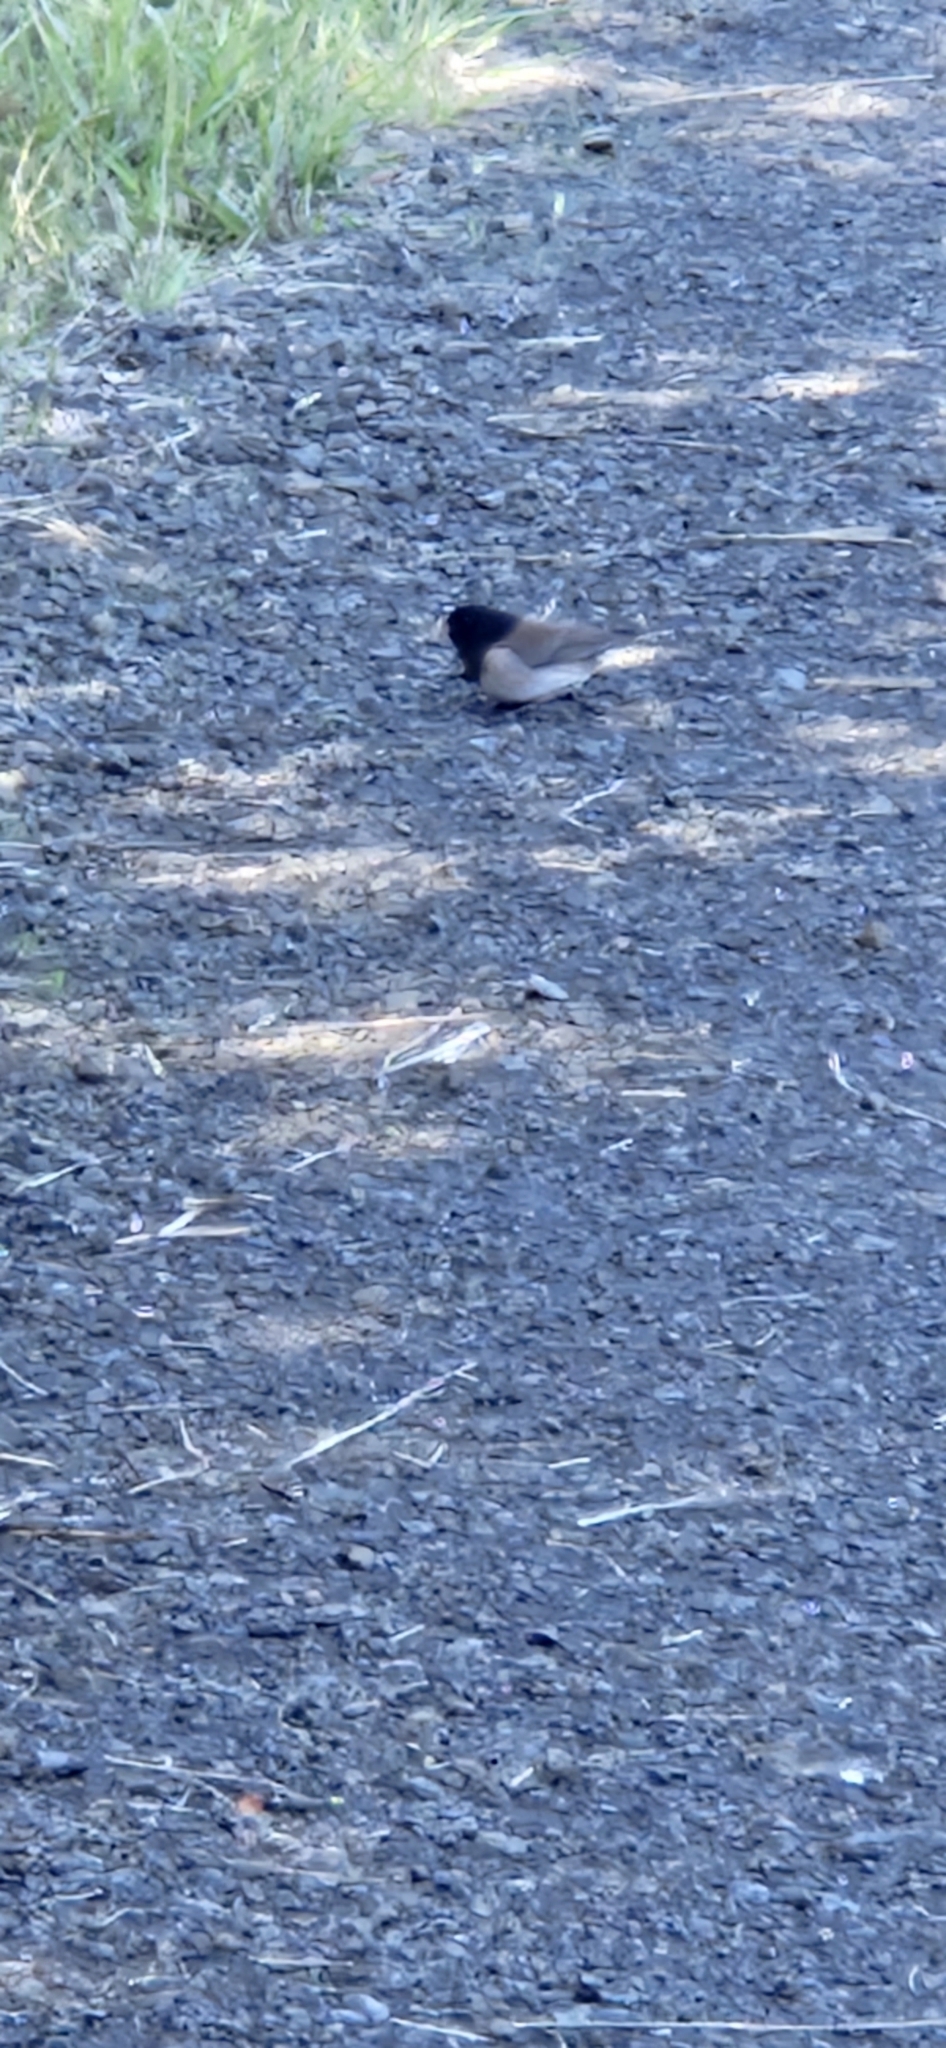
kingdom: Animalia
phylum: Chordata
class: Aves
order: Passeriformes
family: Passerellidae
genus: Junco
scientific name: Junco hyemalis
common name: Dark-eyed junco
